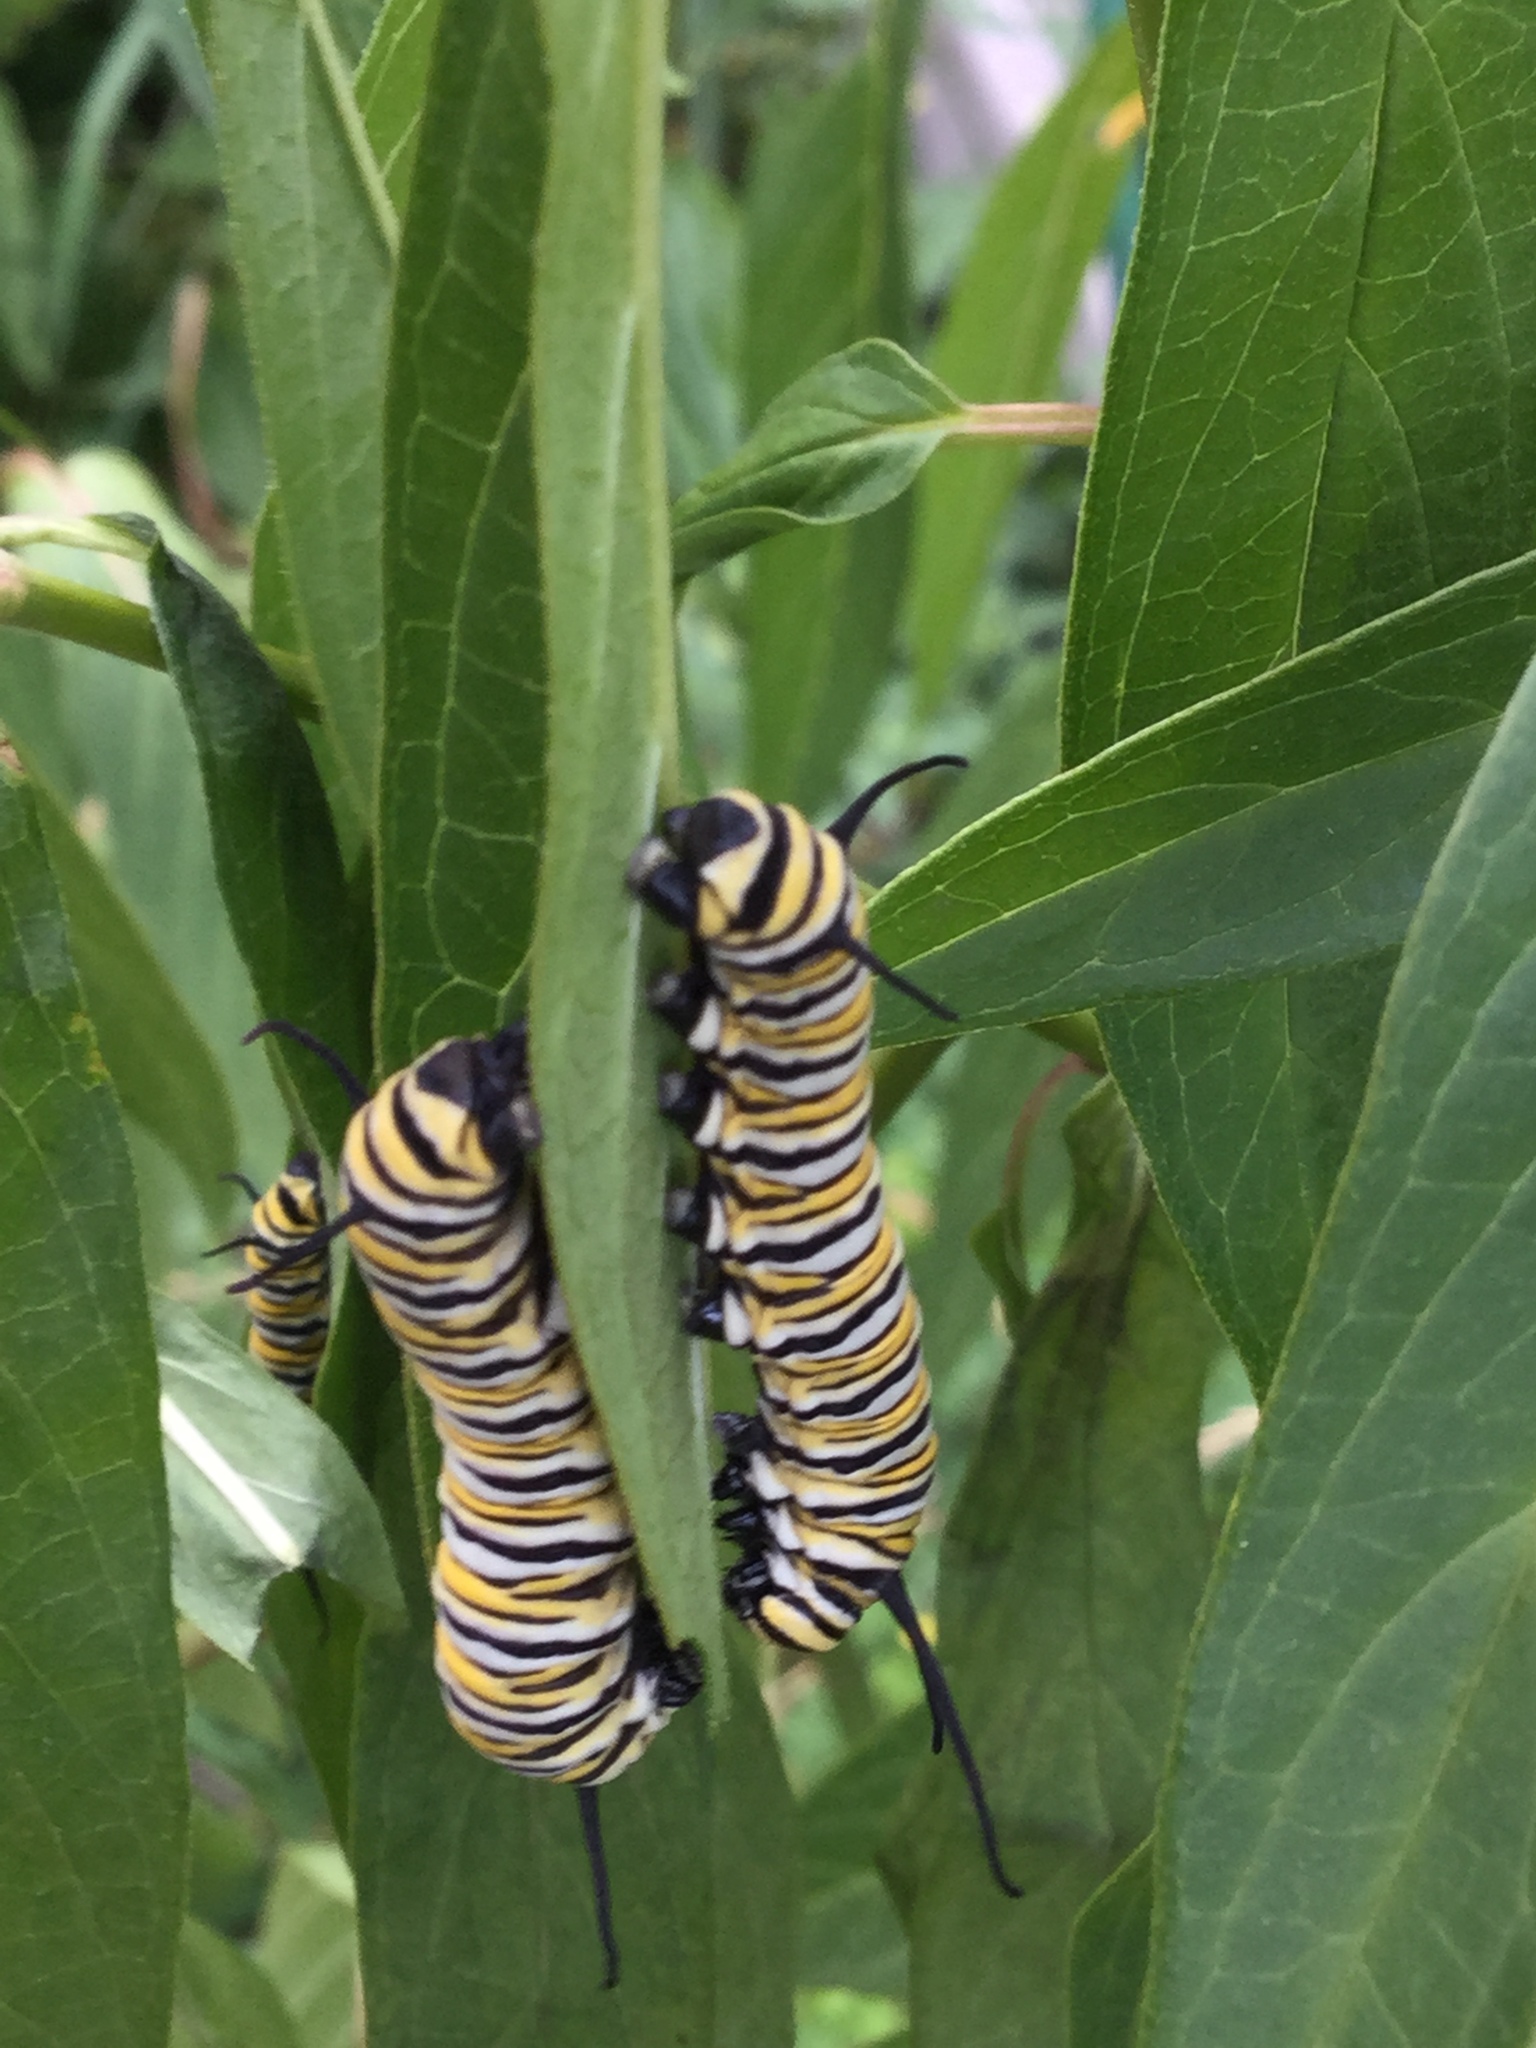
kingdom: Animalia
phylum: Arthropoda
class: Insecta
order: Lepidoptera
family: Nymphalidae
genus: Danaus
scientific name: Danaus plexippus
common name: Monarch
